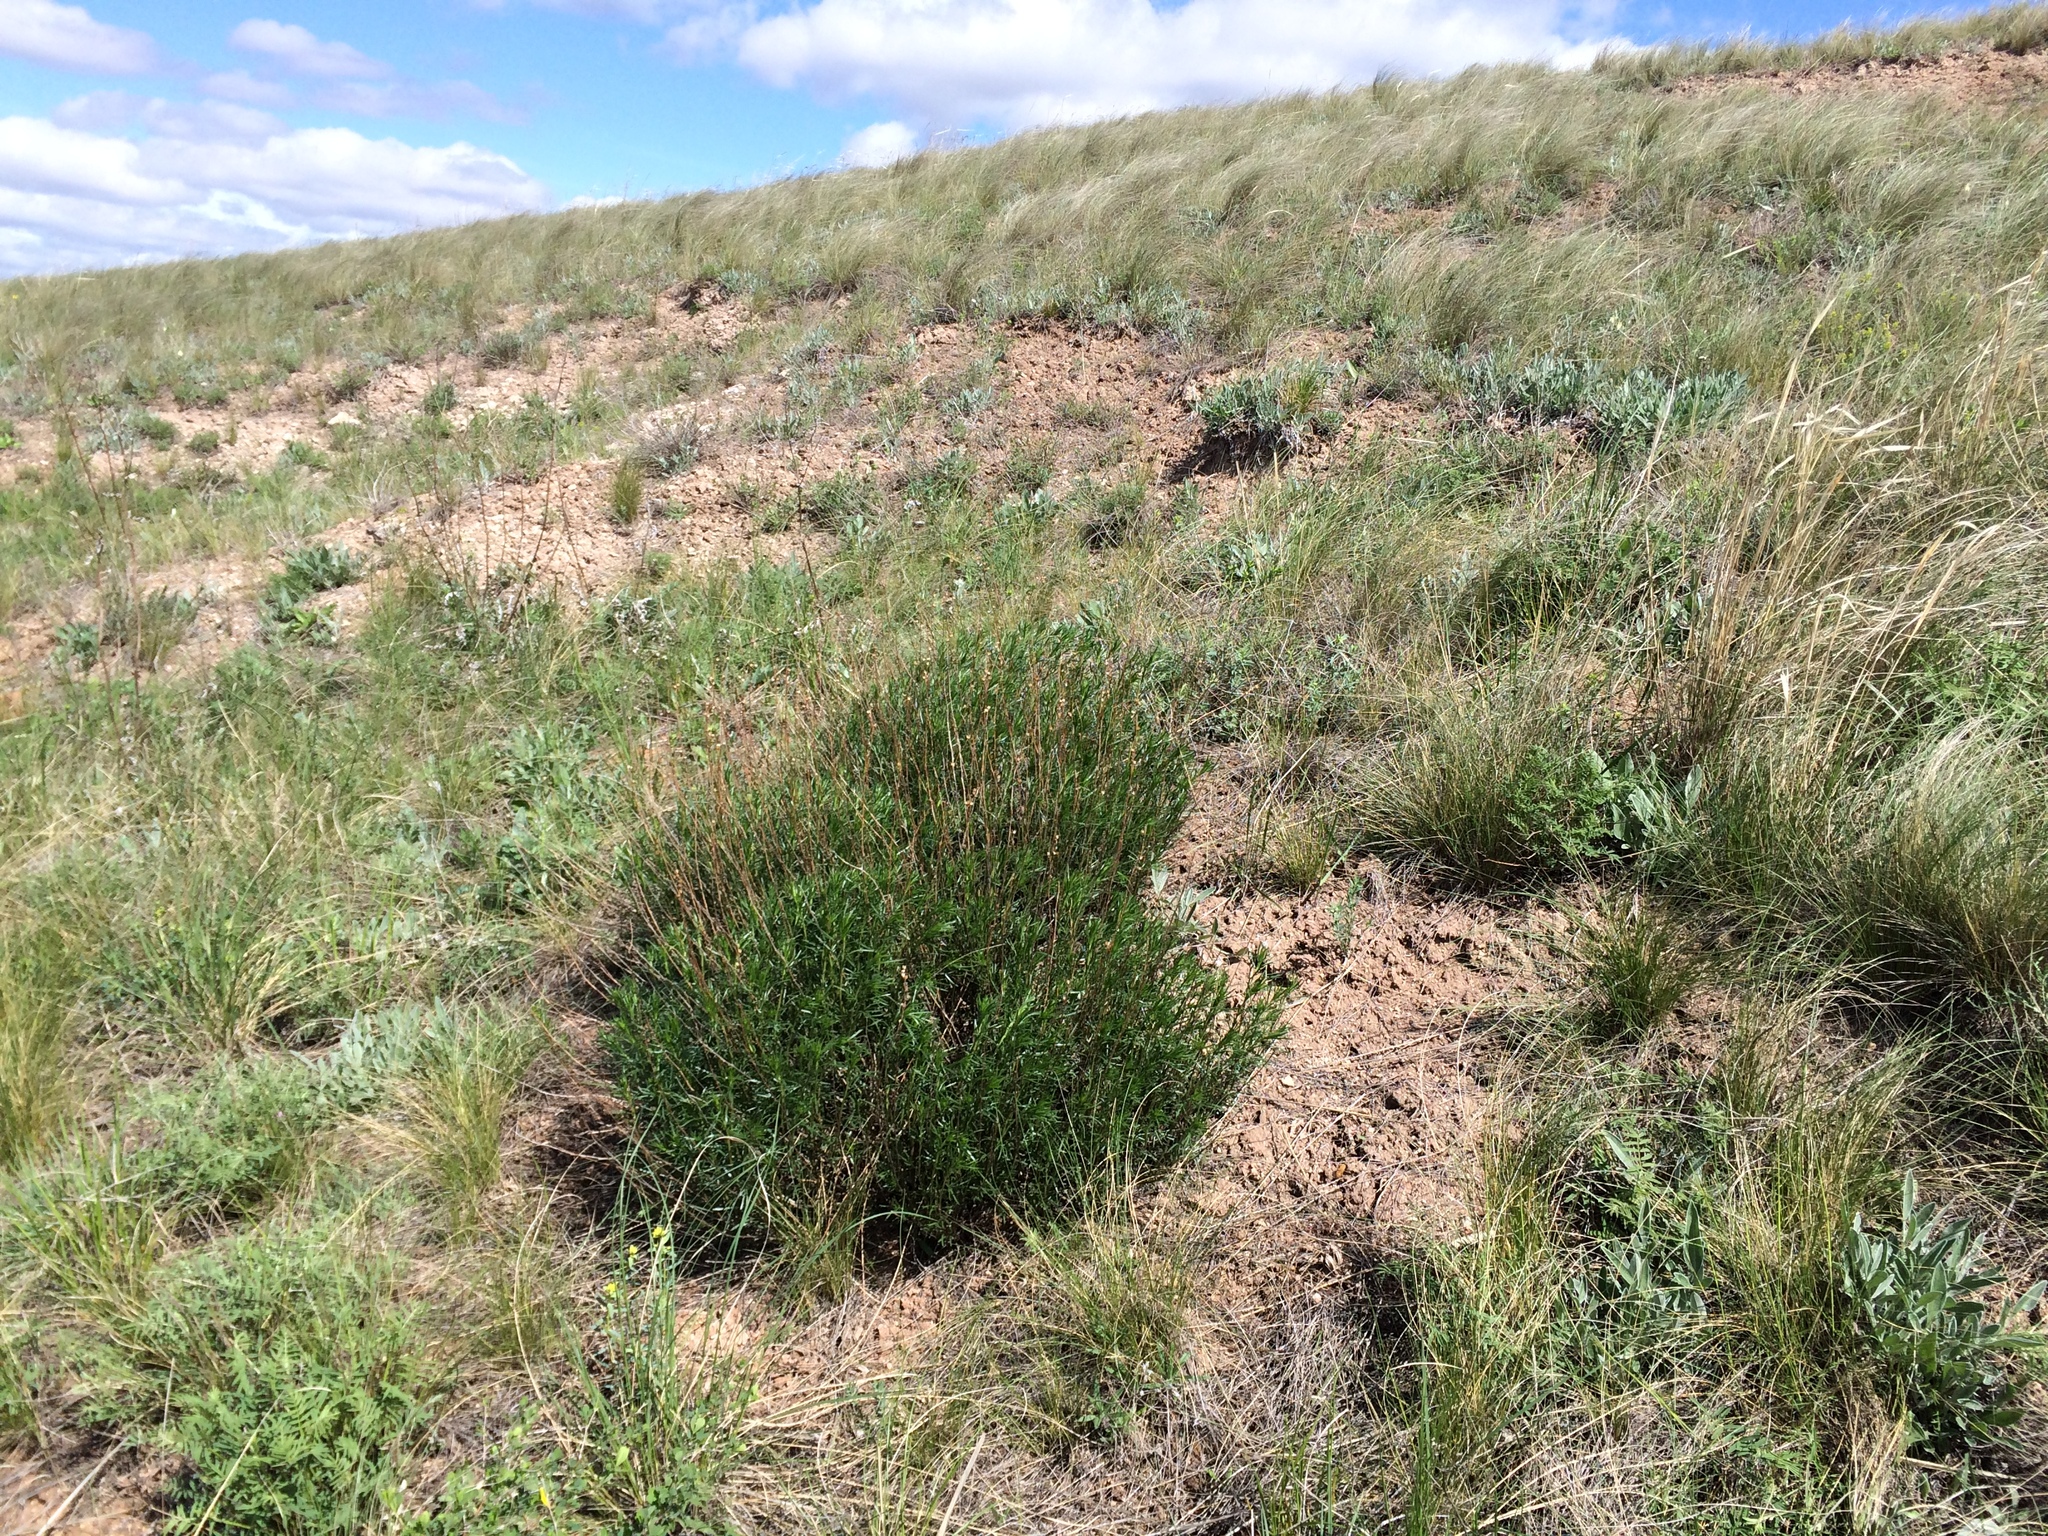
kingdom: Plantae
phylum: Tracheophyta
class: Magnoliopsida
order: Asterales
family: Asteraceae
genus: Artemisia
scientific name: Artemisia salsoloides
